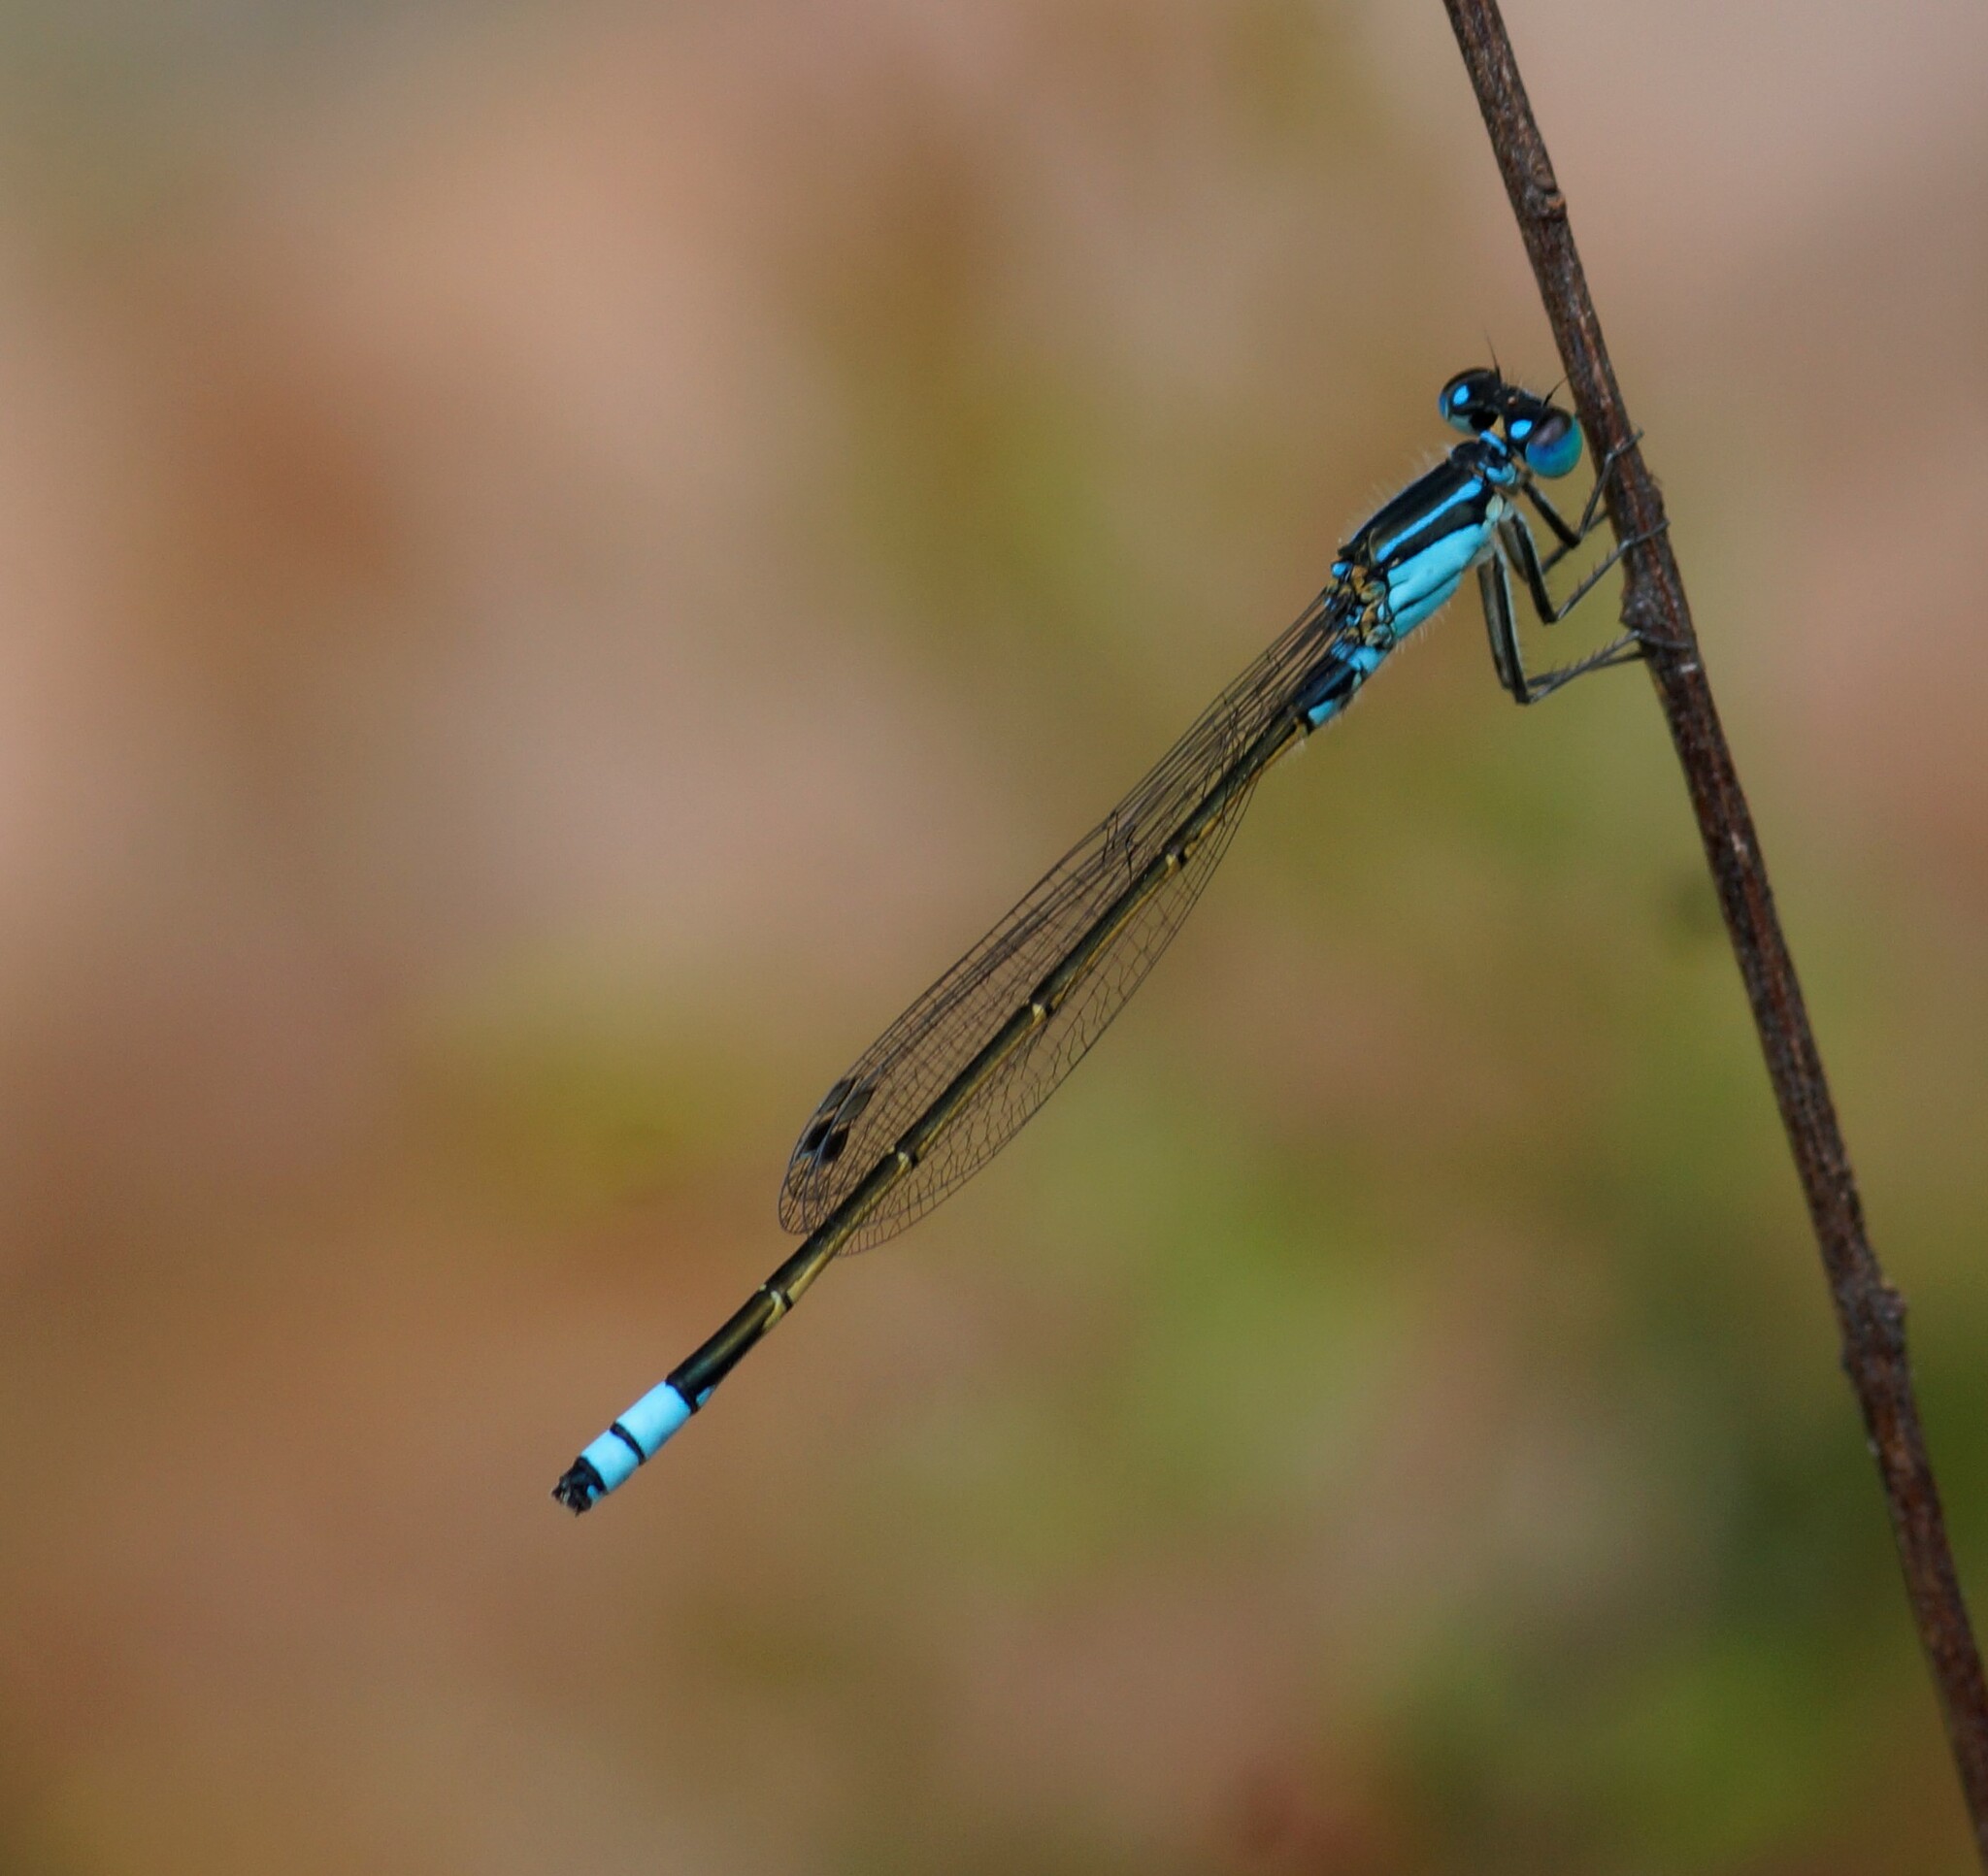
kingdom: Animalia
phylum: Arthropoda
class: Insecta
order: Odonata
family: Coenagrionidae
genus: Ischnura
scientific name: Ischnura heterosticta
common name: Common bluetail
